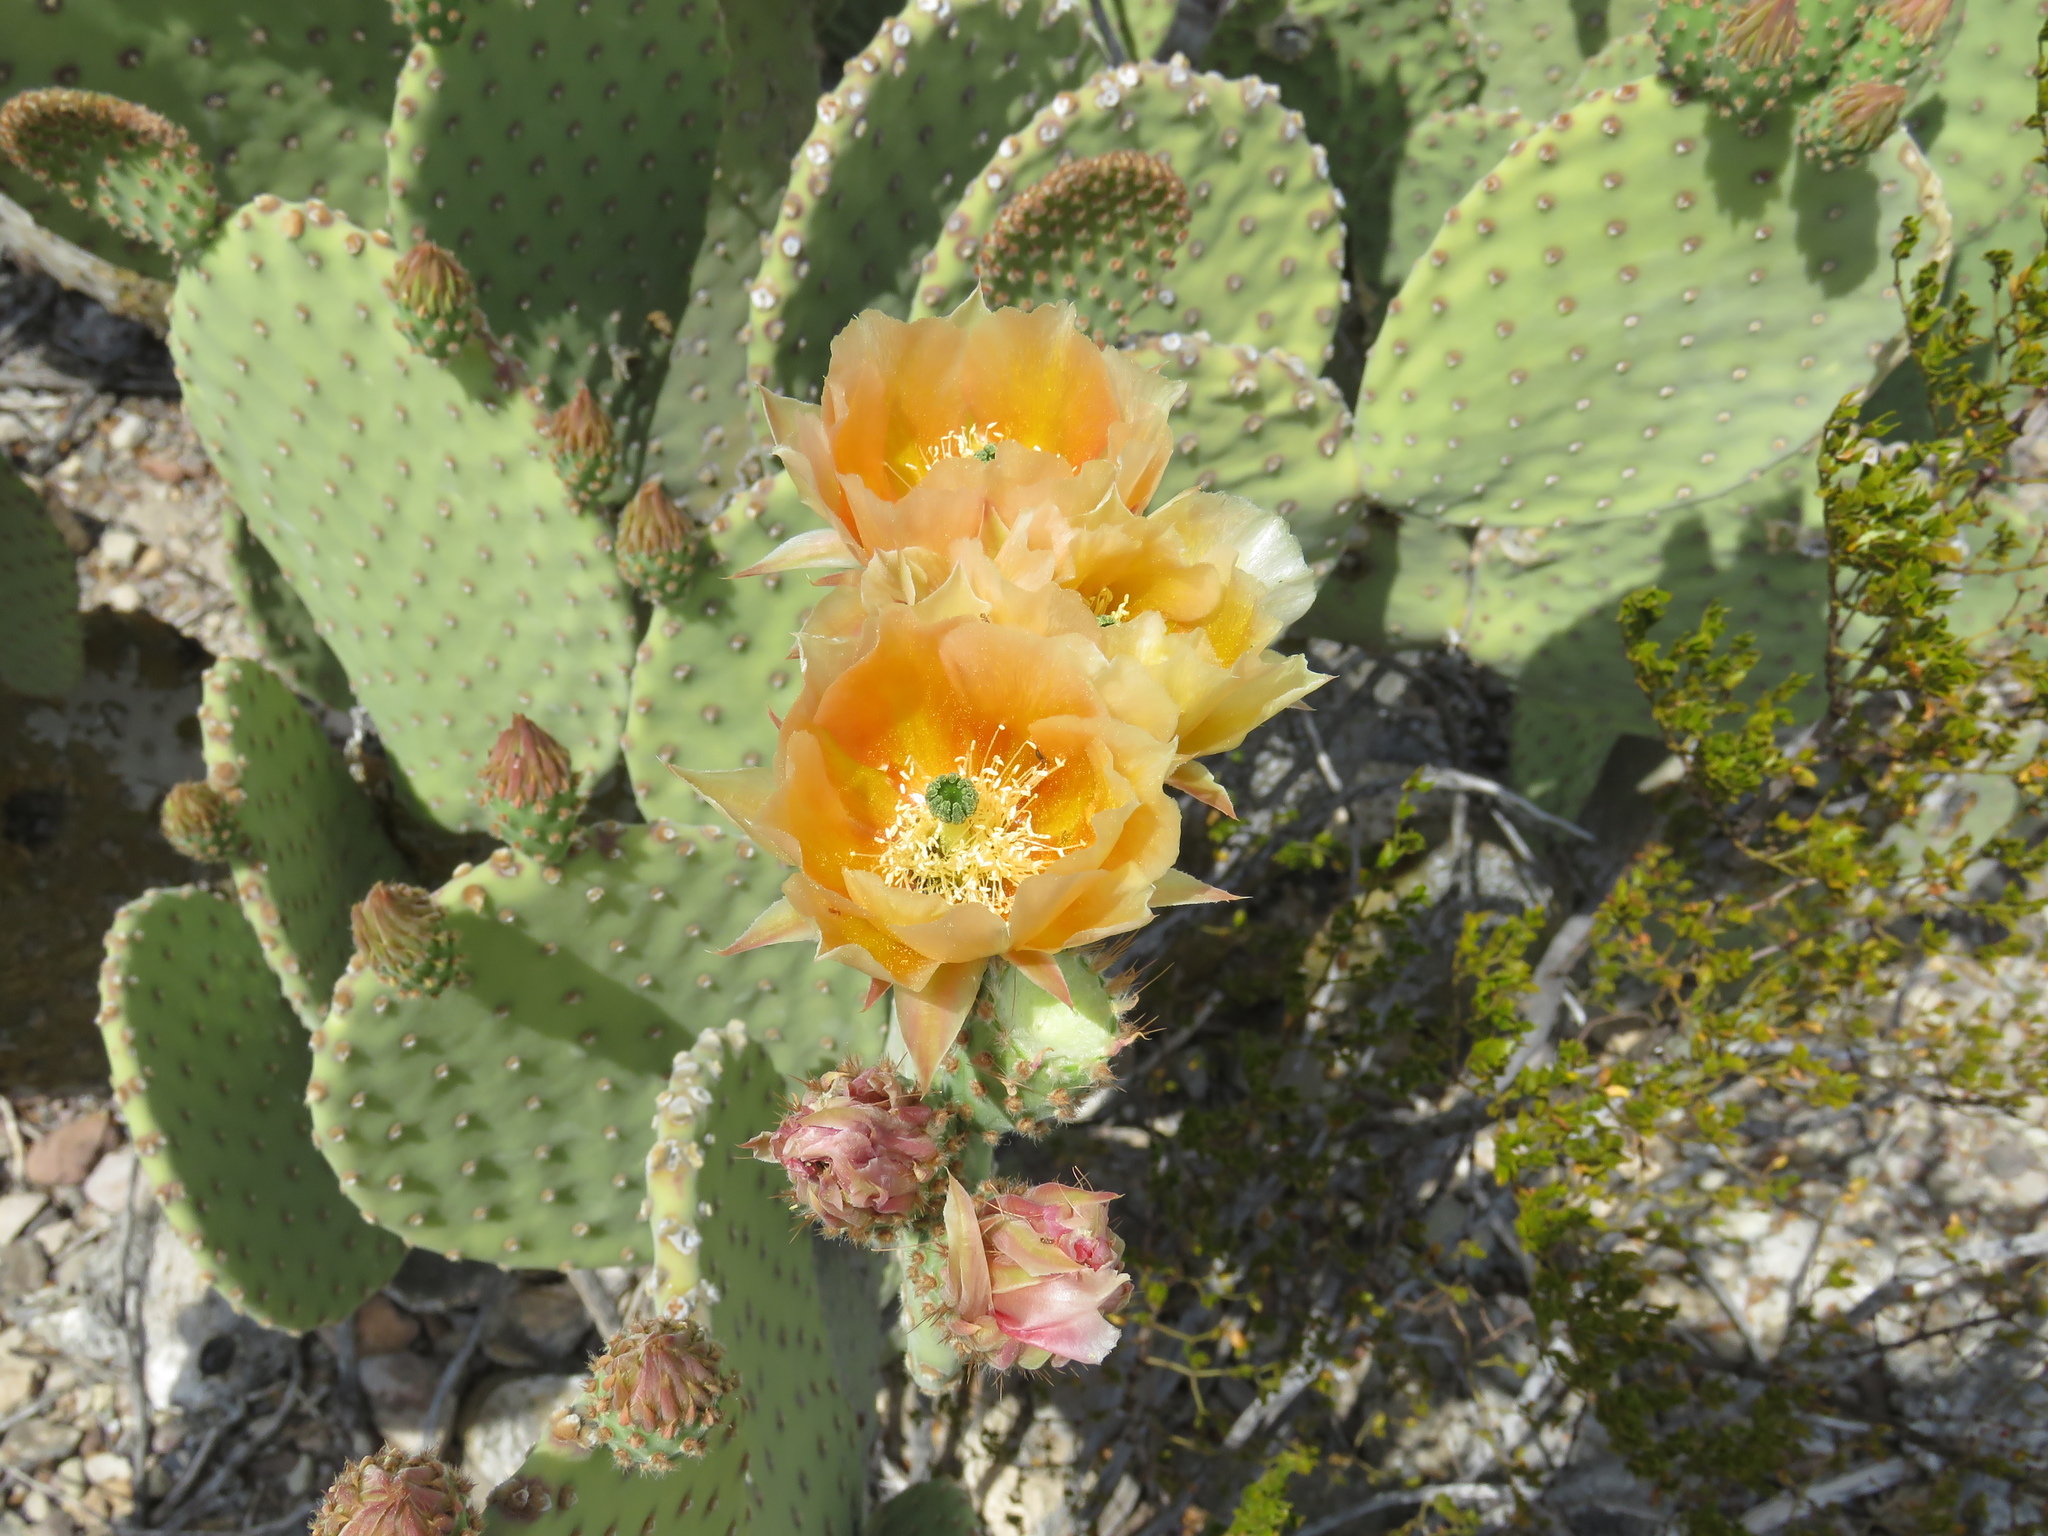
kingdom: Plantae
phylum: Tracheophyta
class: Magnoliopsida
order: Caryophyllales
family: Cactaceae
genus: Opuntia
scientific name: Opuntia rufida
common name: Blind pricklypear
